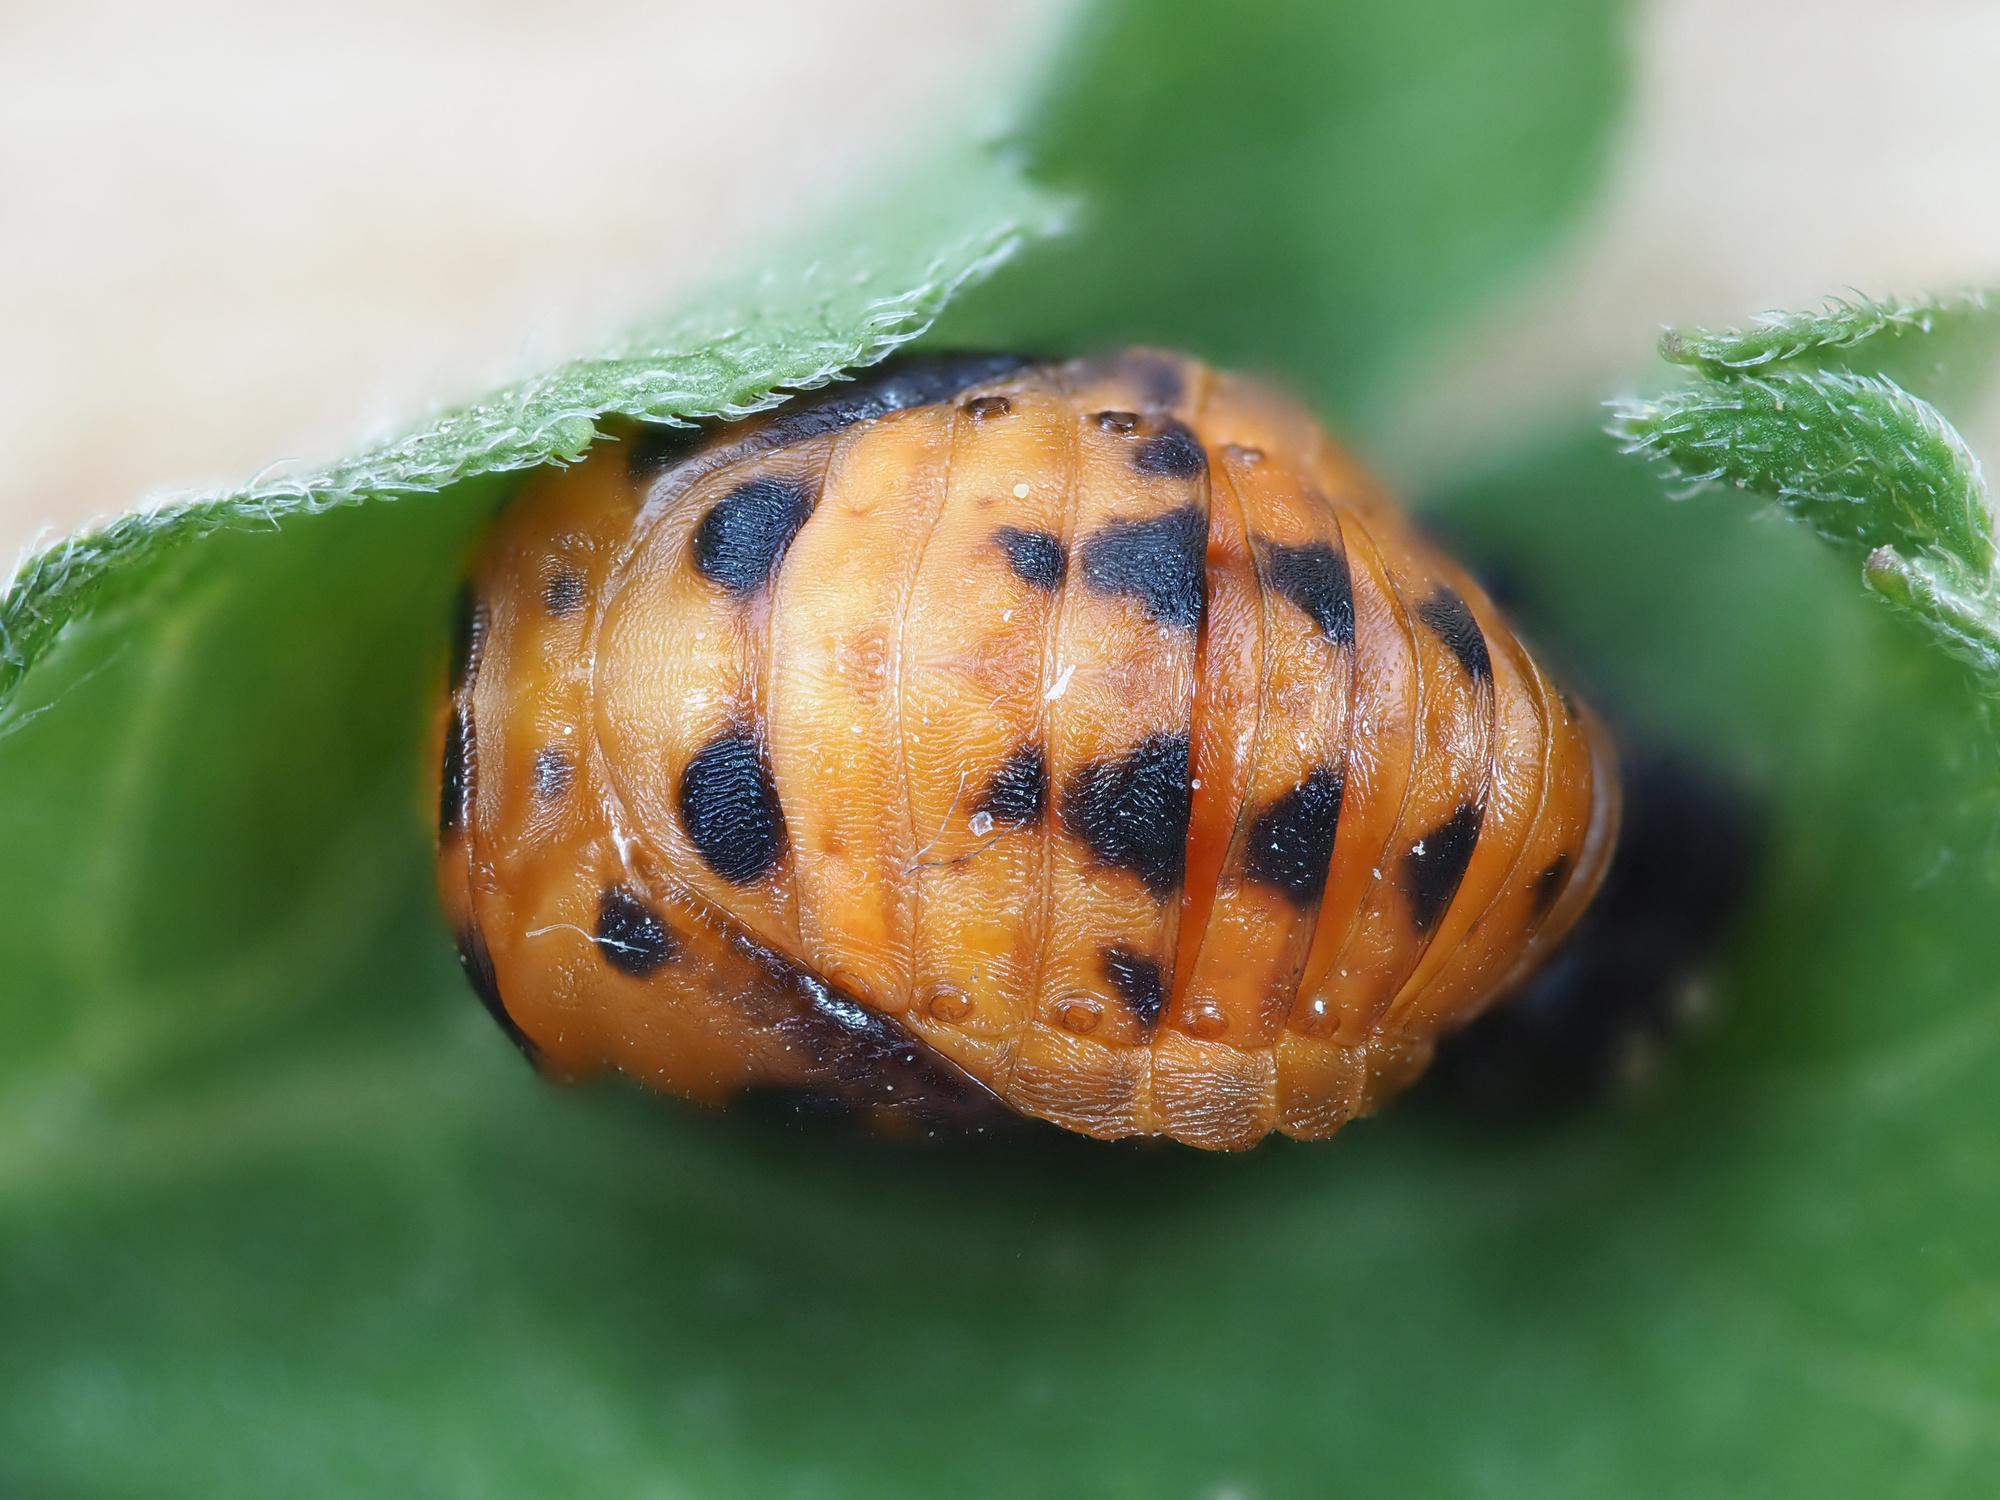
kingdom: Animalia
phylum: Arthropoda
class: Insecta
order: Coleoptera
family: Coccinellidae
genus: Coccinella
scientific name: Coccinella septempunctata
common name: Sevenspotted lady beetle
